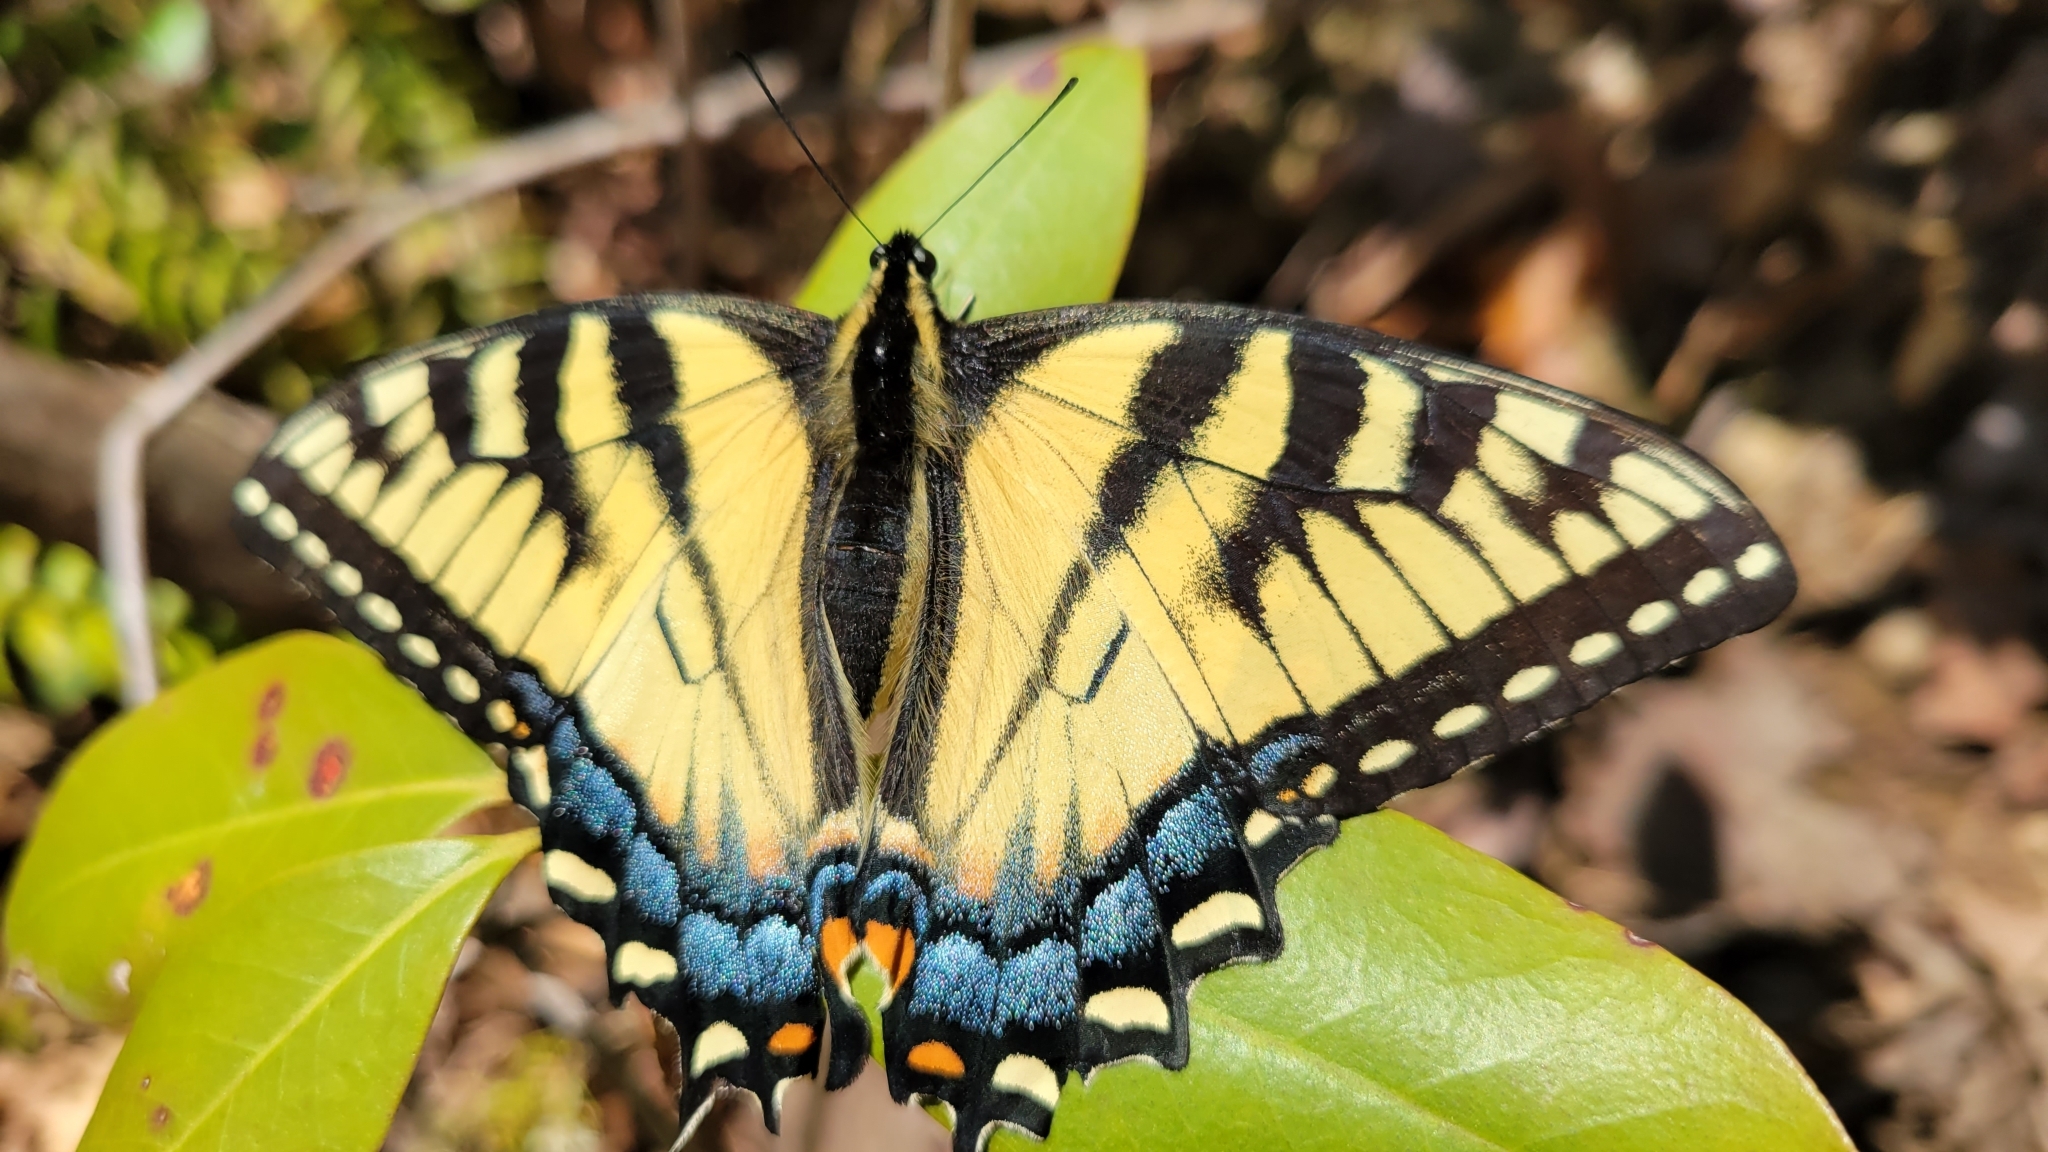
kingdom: Animalia
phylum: Arthropoda
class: Insecta
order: Lepidoptera
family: Papilionidae
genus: Papilio
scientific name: Papilio glaucus
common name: Tiger swallowtail
